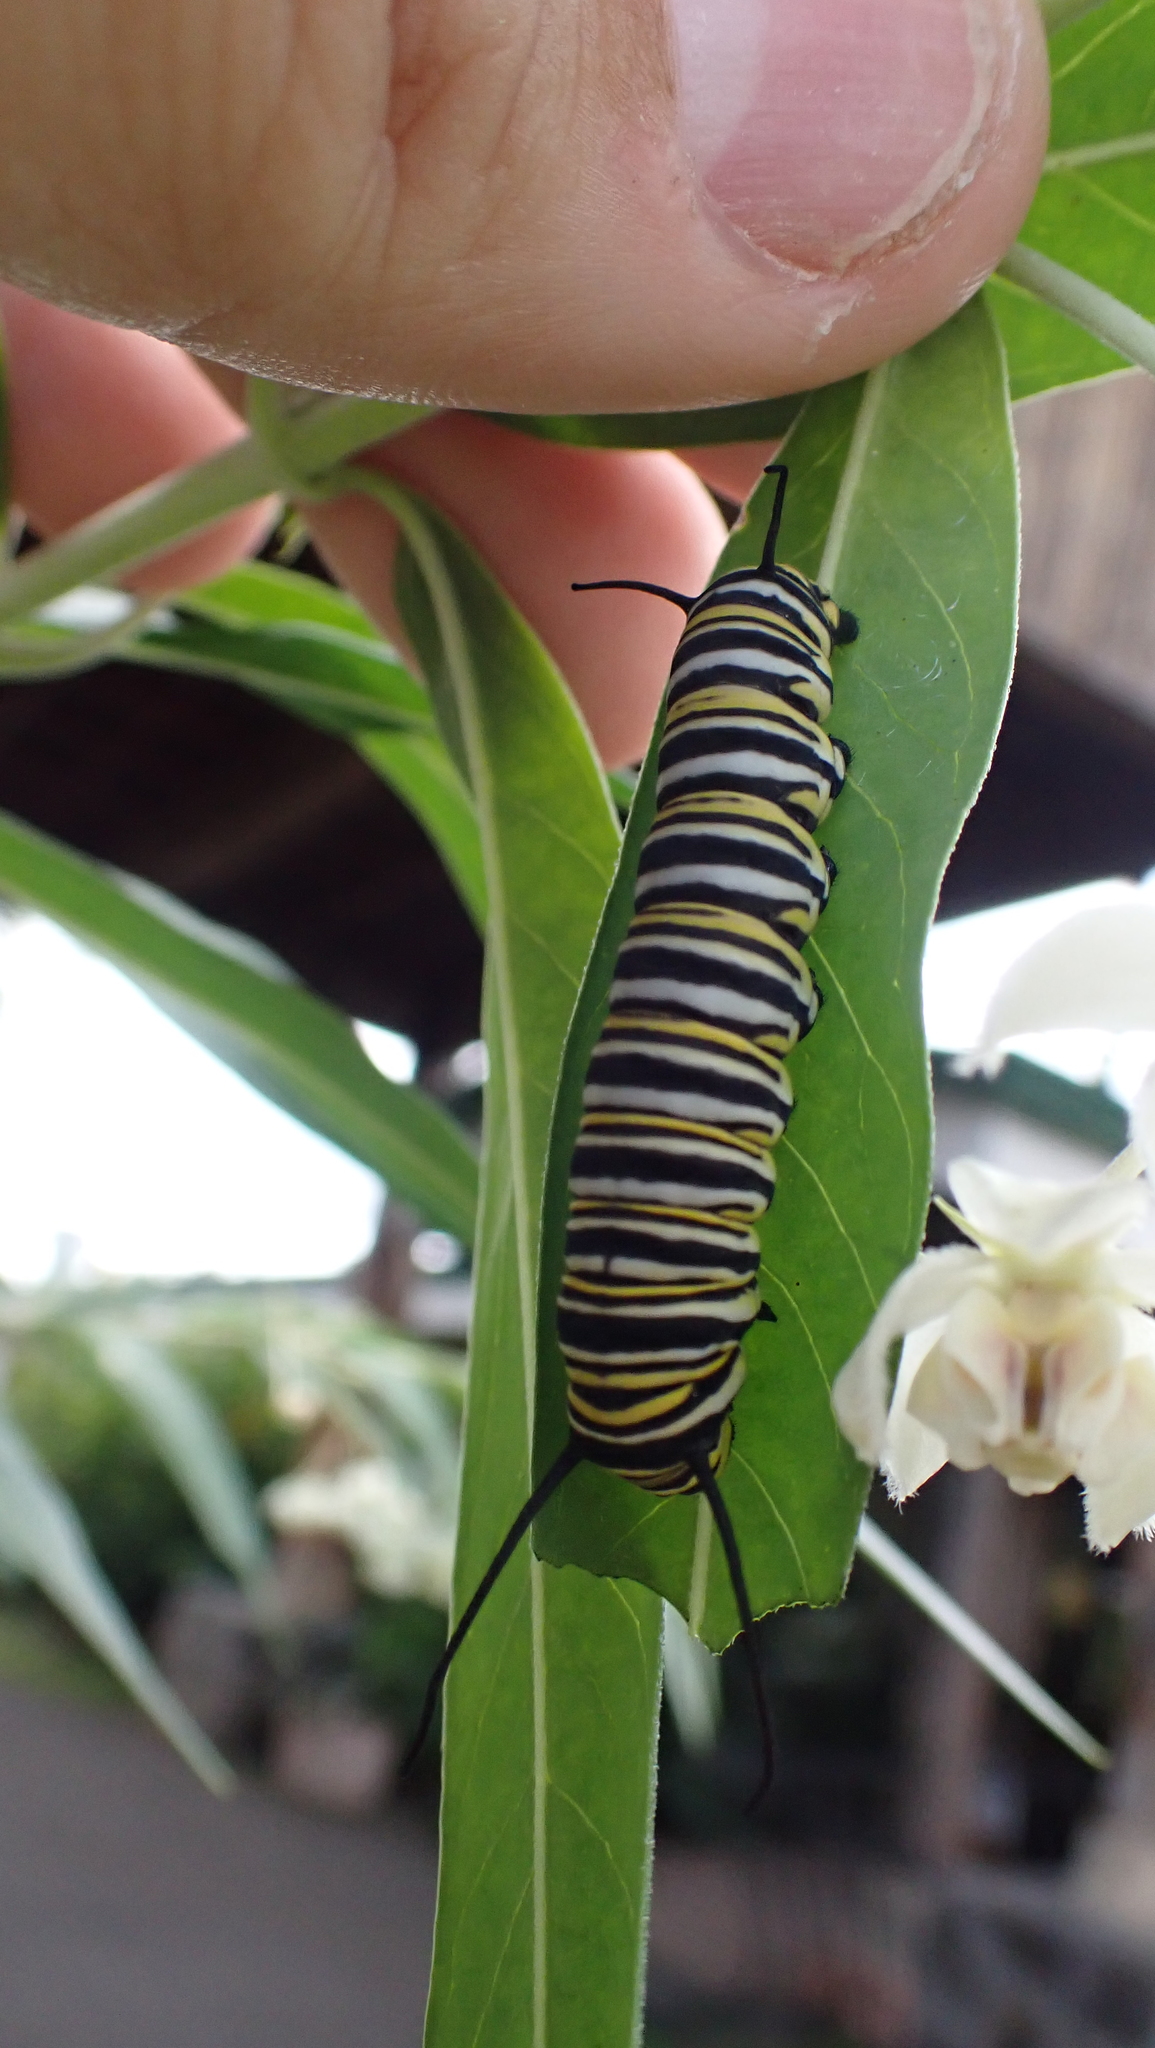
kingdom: Animalia
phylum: Arthropoda
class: Insecta
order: Lepidoptera
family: Nymphalidae
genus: Danaus
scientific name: Danaus plexippus
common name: Monarch
